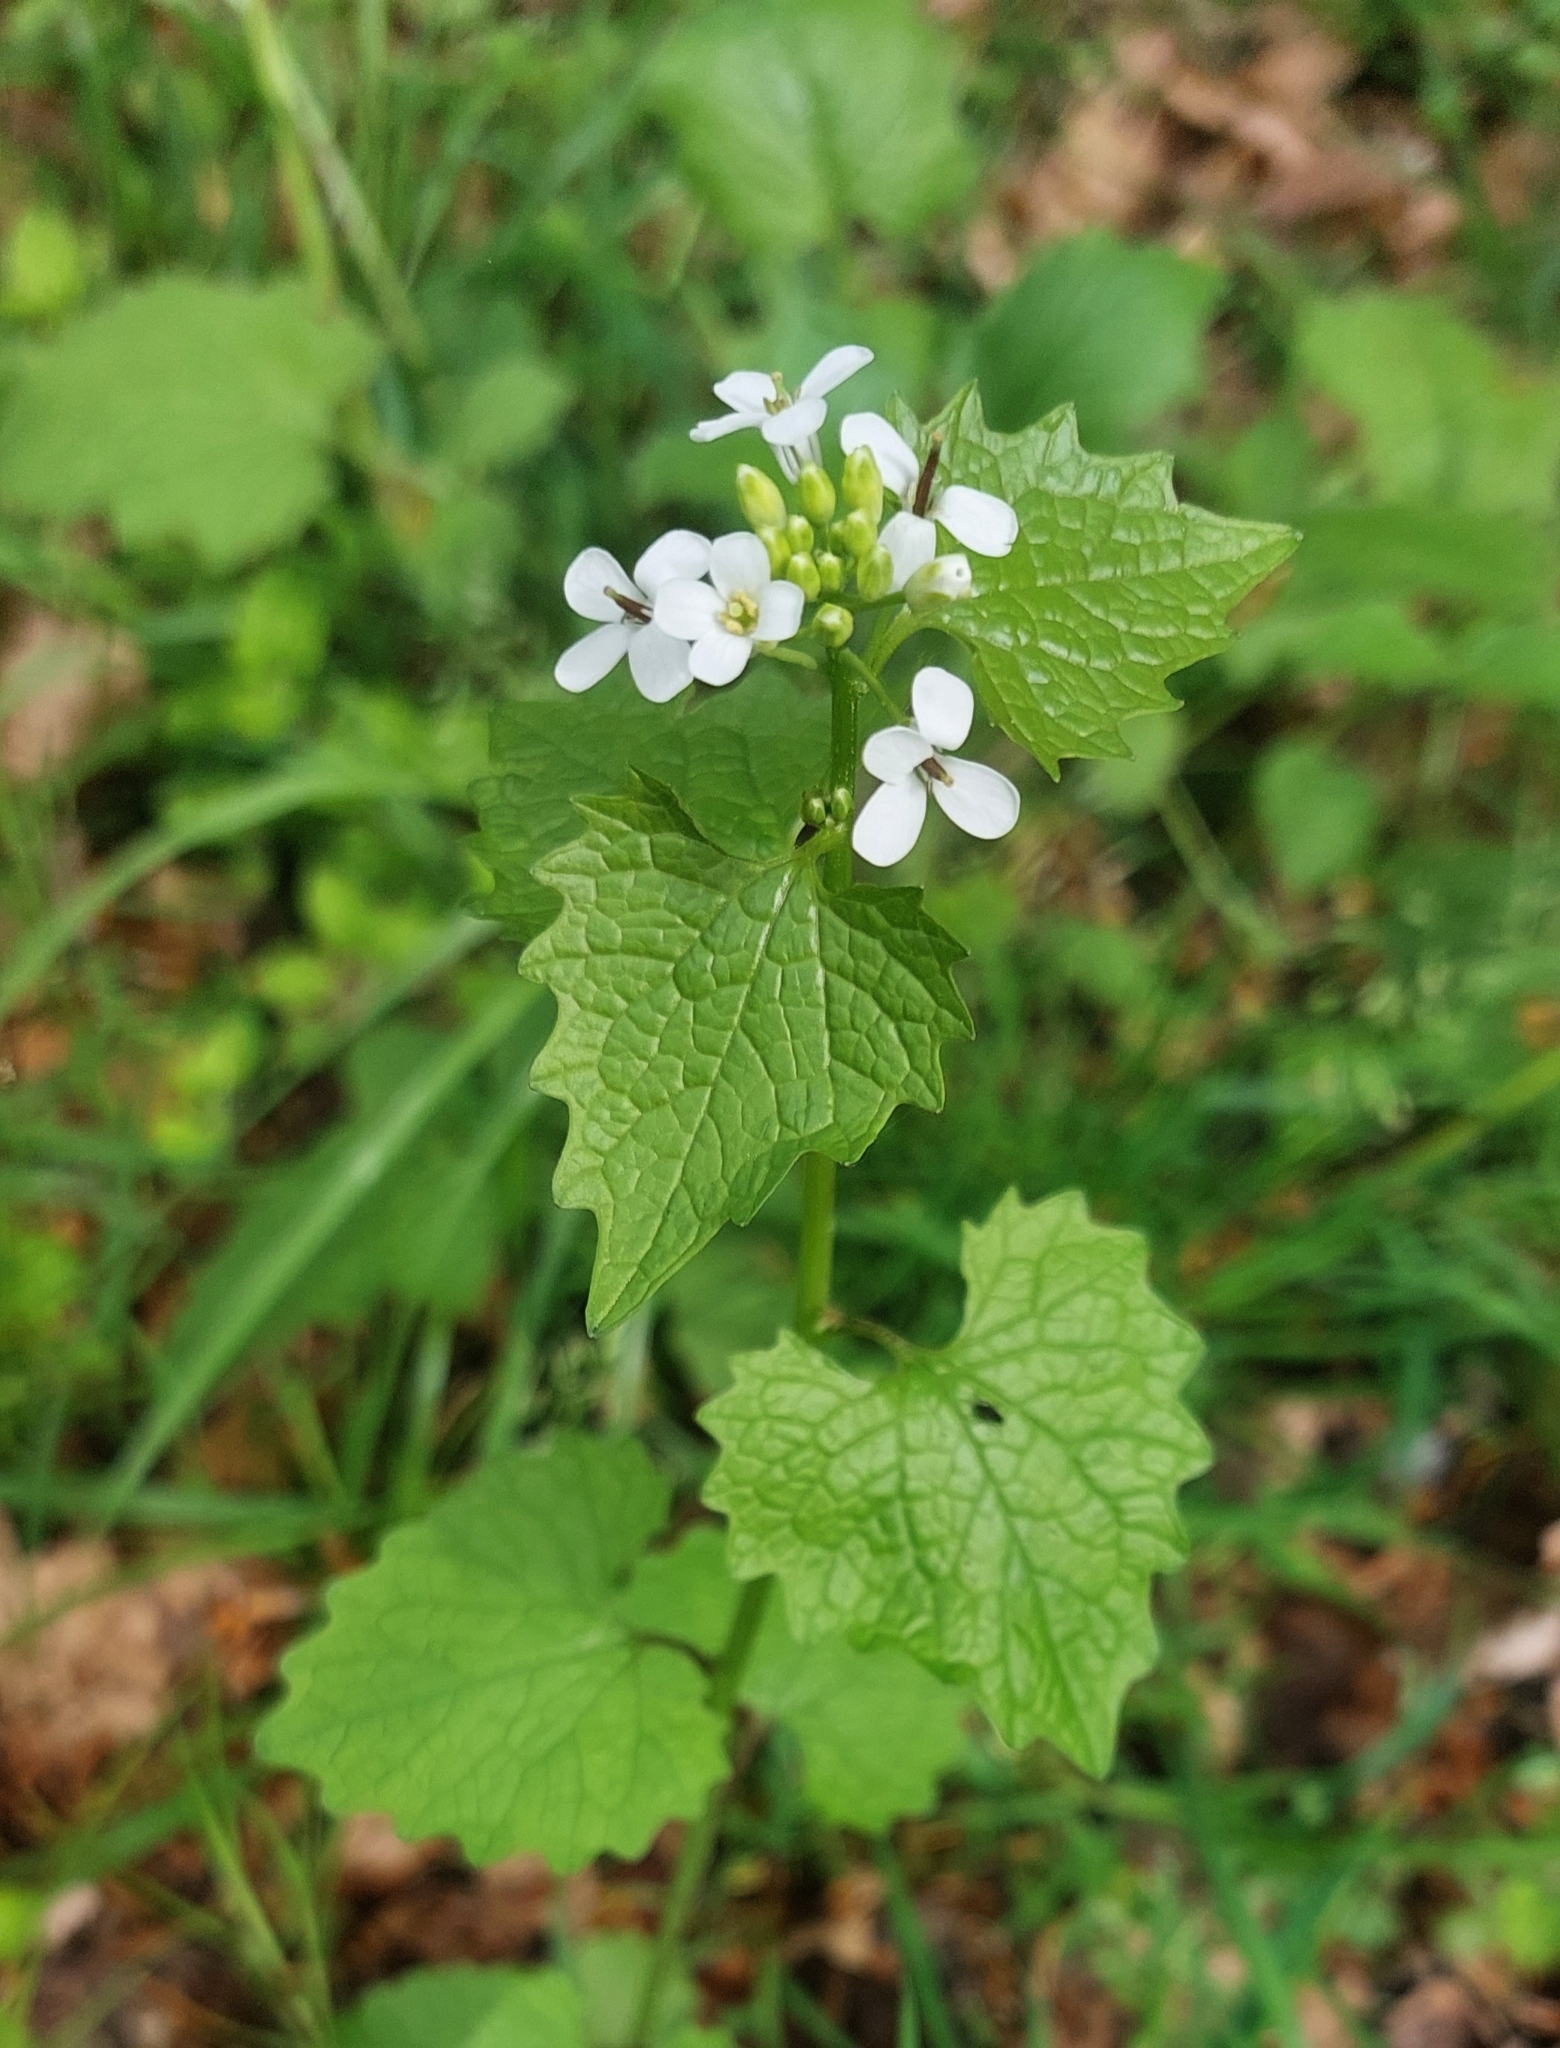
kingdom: Plantae
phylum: Tracheophyta
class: Magnoliopsida
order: Brassicales
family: Brassicaceae
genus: Alliaria
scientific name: Alliaria petiolata
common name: Garlic mustard
